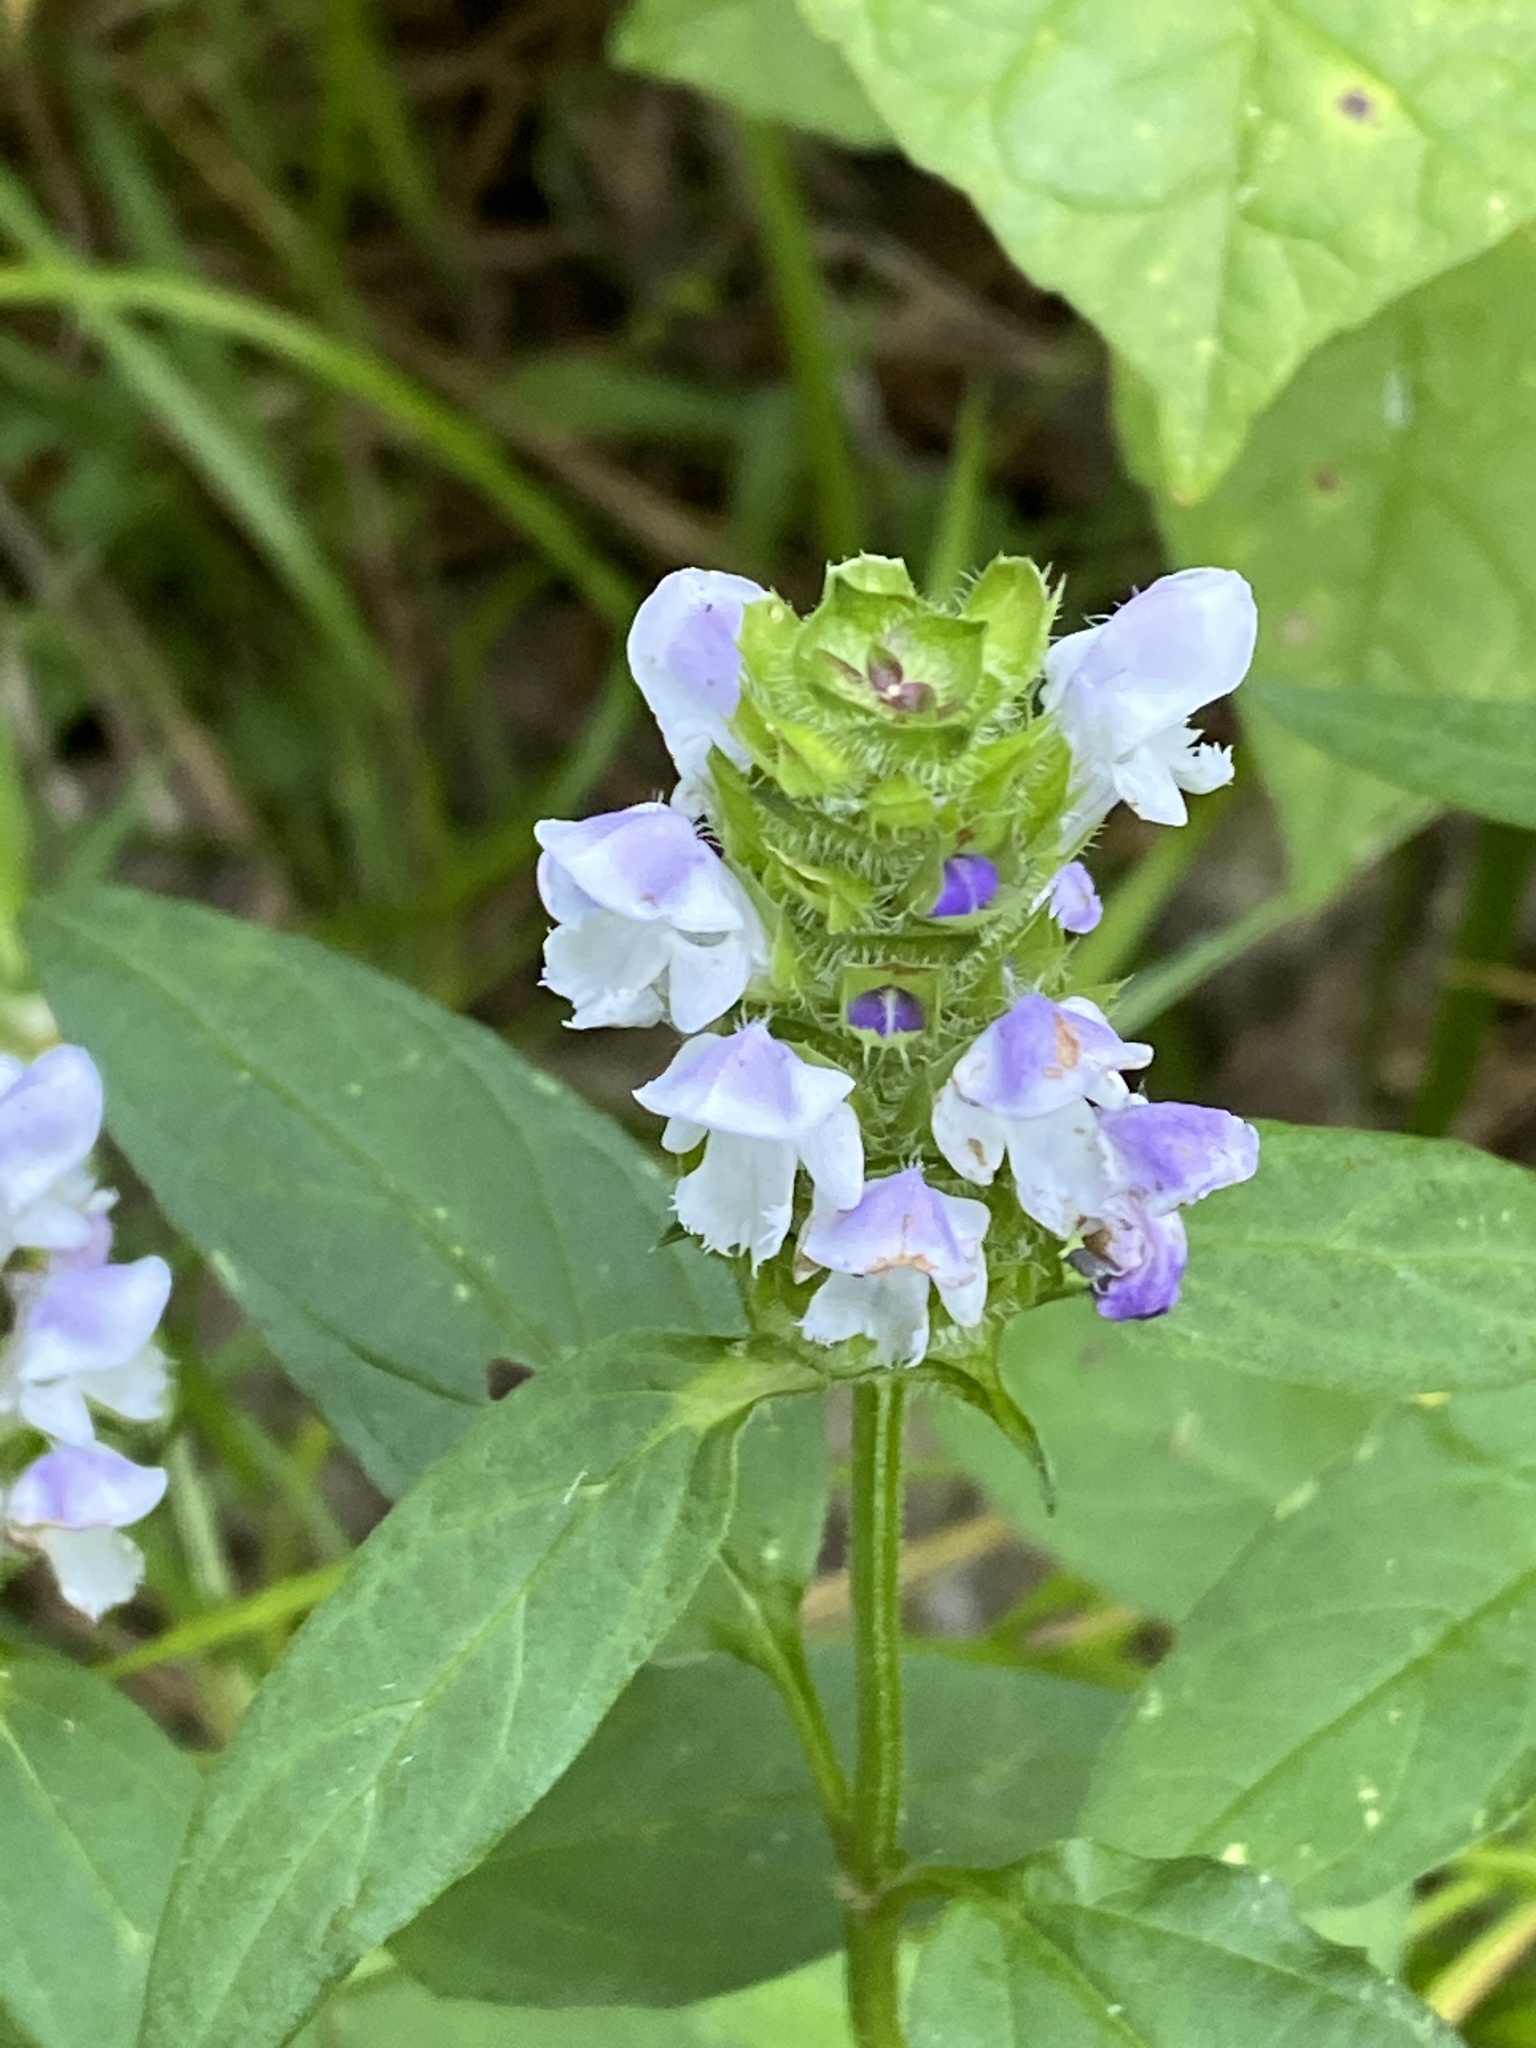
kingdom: Plantae
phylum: Tracheophyta
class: Magnoliopsida
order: Lamiales
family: Lamiaceae
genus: Prunella
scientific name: Prunella vulgaris
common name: Heal-all
